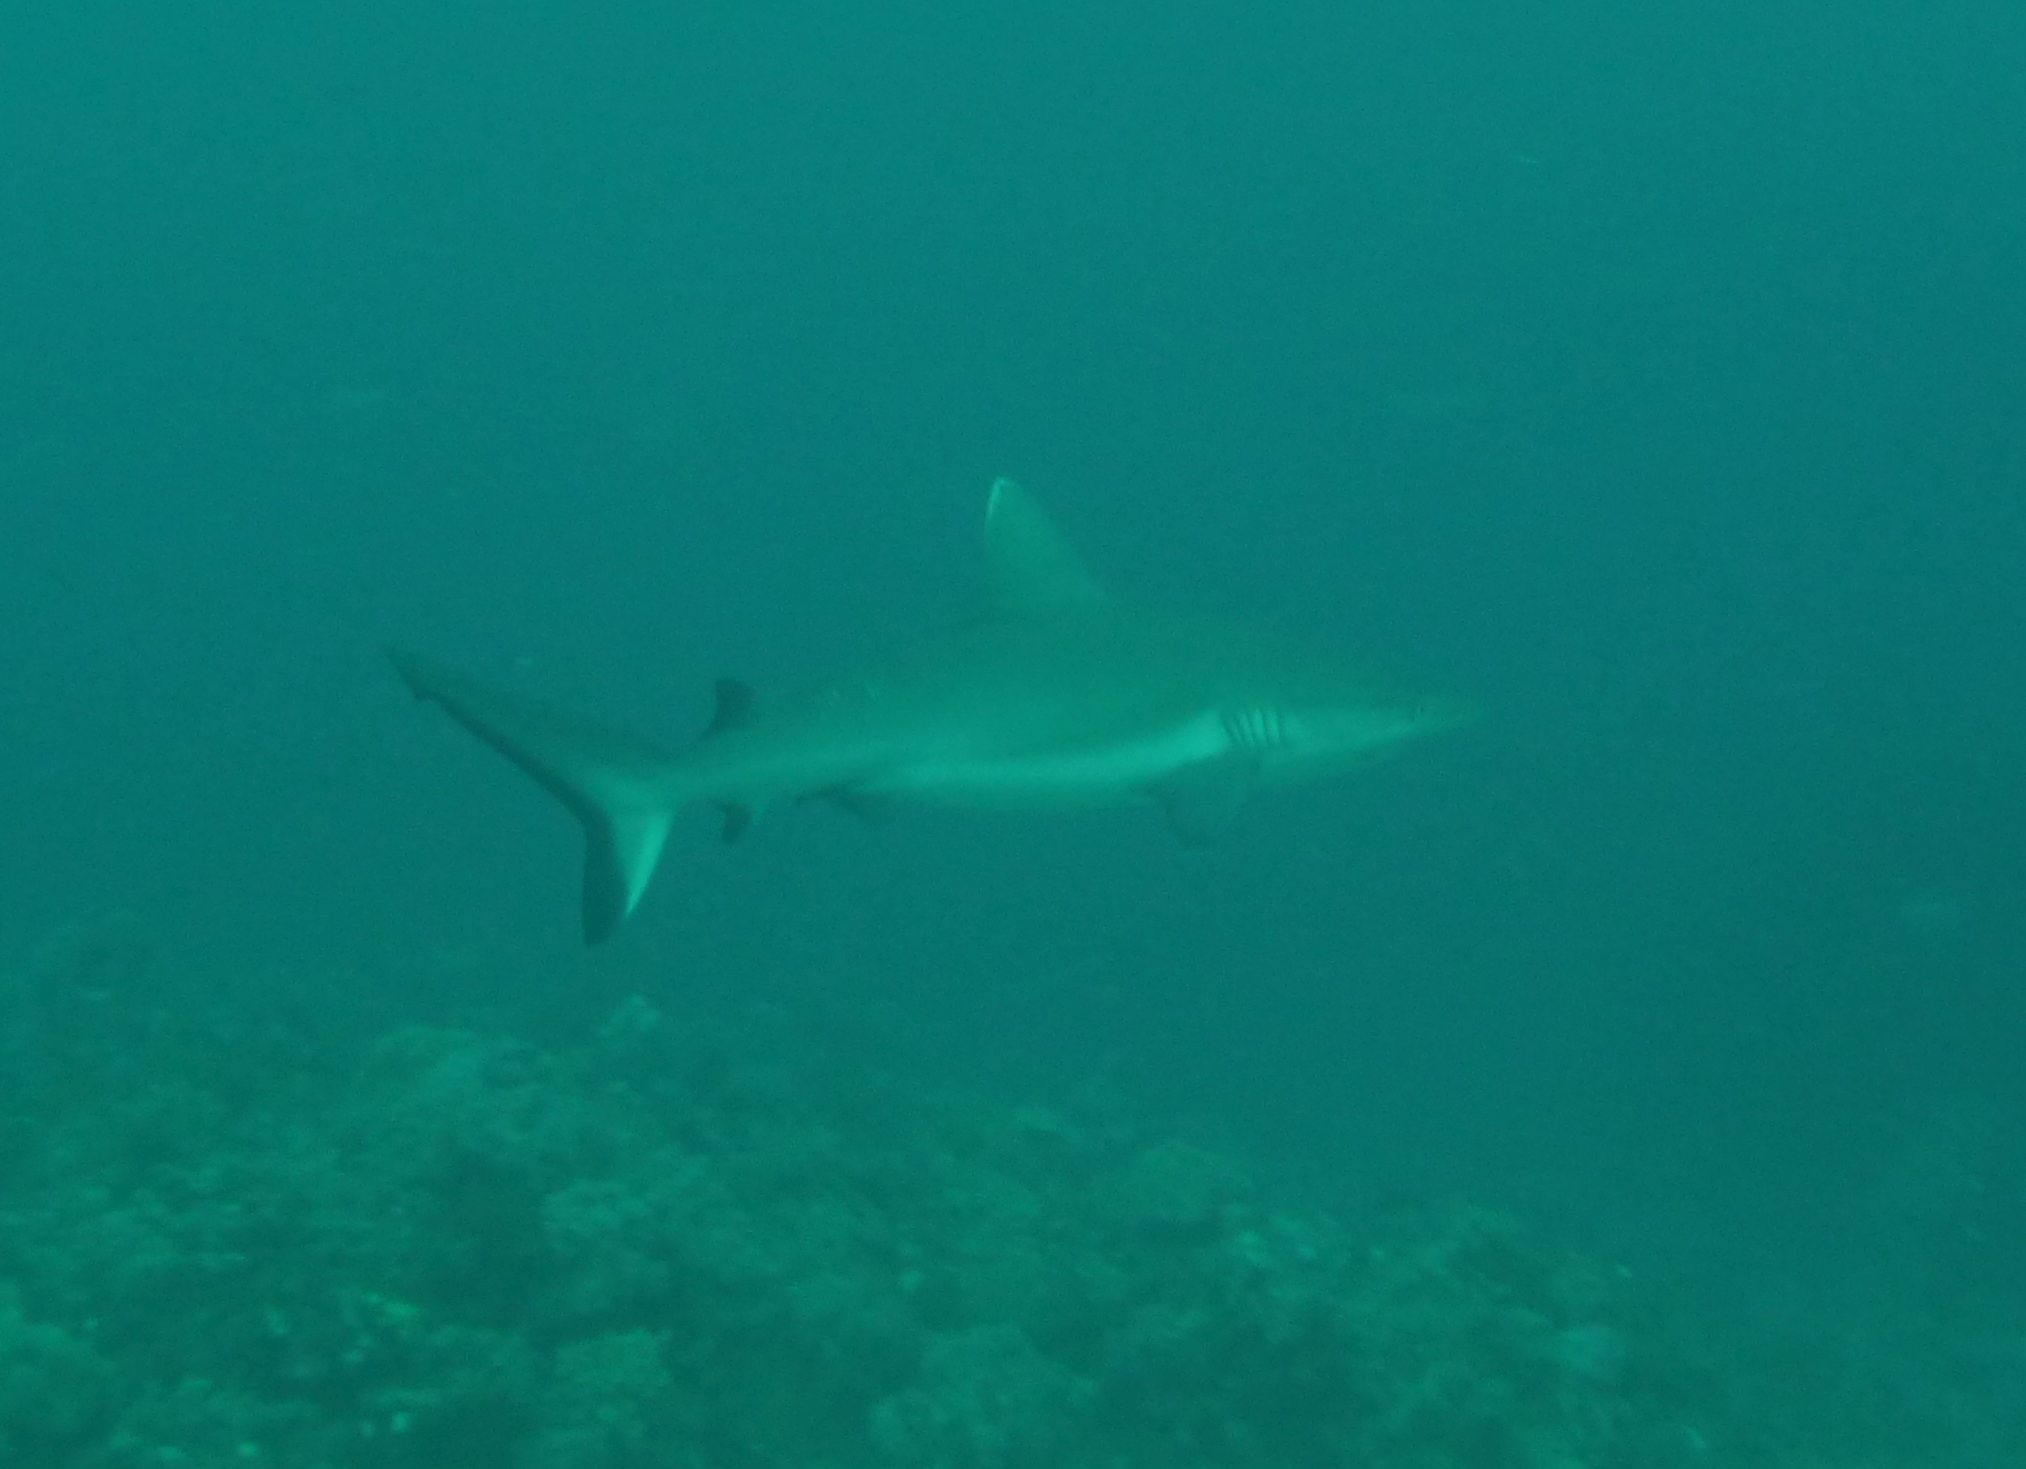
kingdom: Animalia
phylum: Chordata
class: Elasmobranchii
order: Carcharhiniformes
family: Carcharhinidae
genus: Carcharhinus
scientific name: Carcharhinus amblyrhynchos
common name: Grey reef shark
